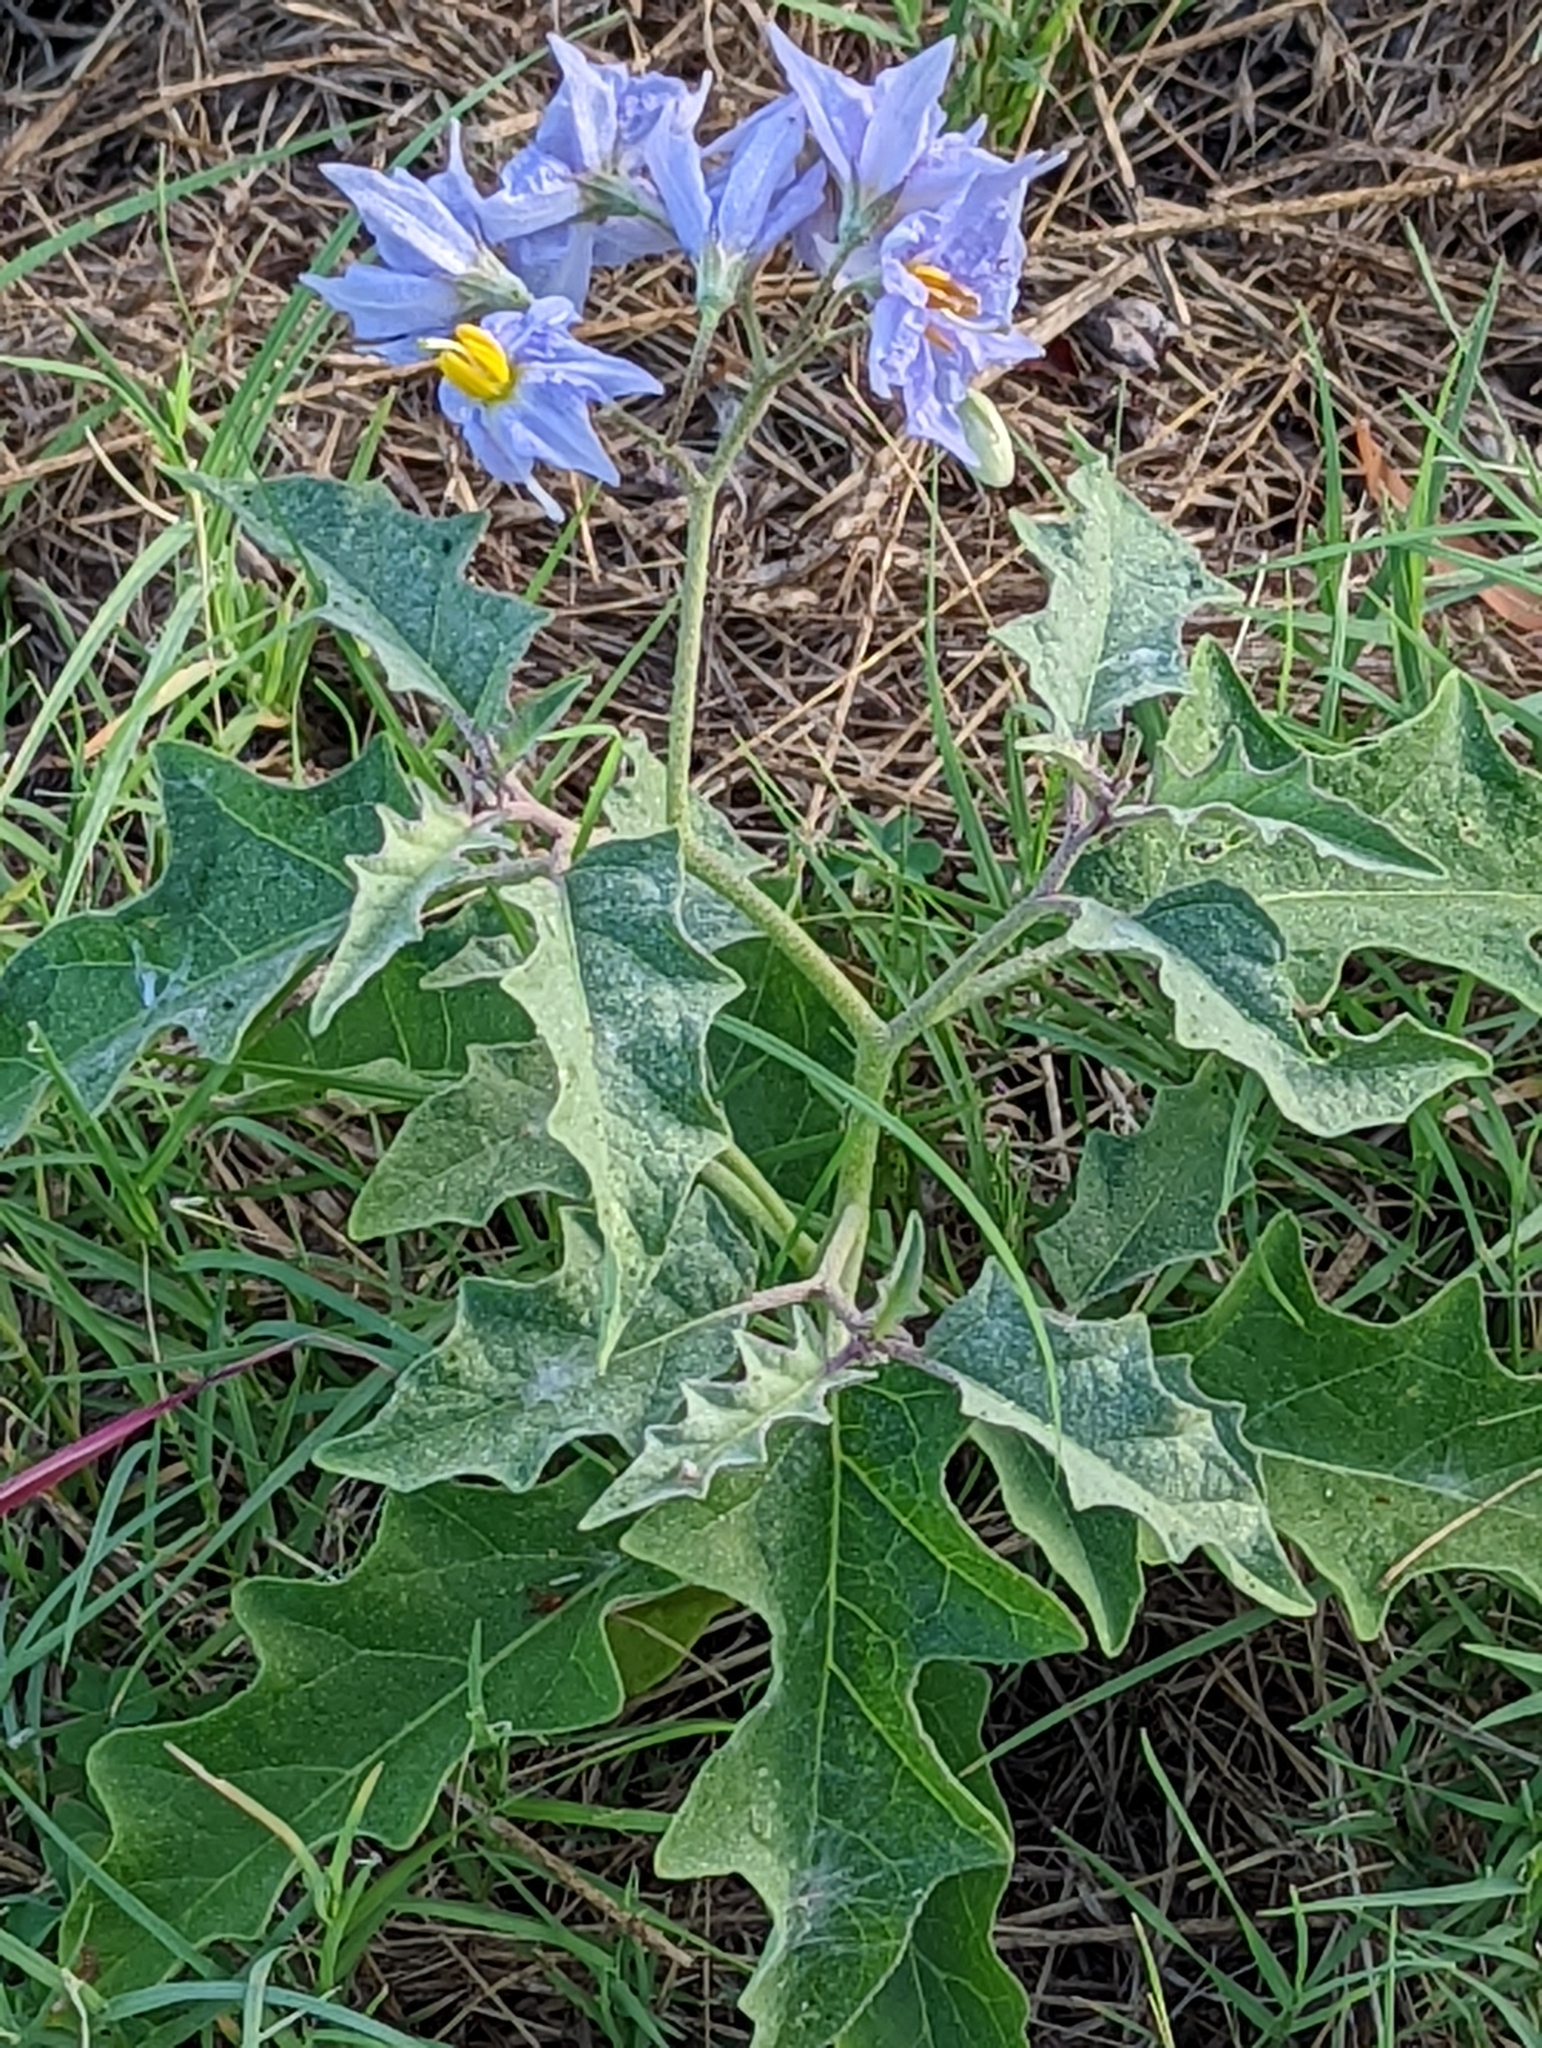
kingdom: Plantae
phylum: Tracheophyta
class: Magnoliopsida
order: Solanales
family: Solanaceae
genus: Solanum
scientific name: Solanum dimidiatum
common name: Carolina horse-nettle
